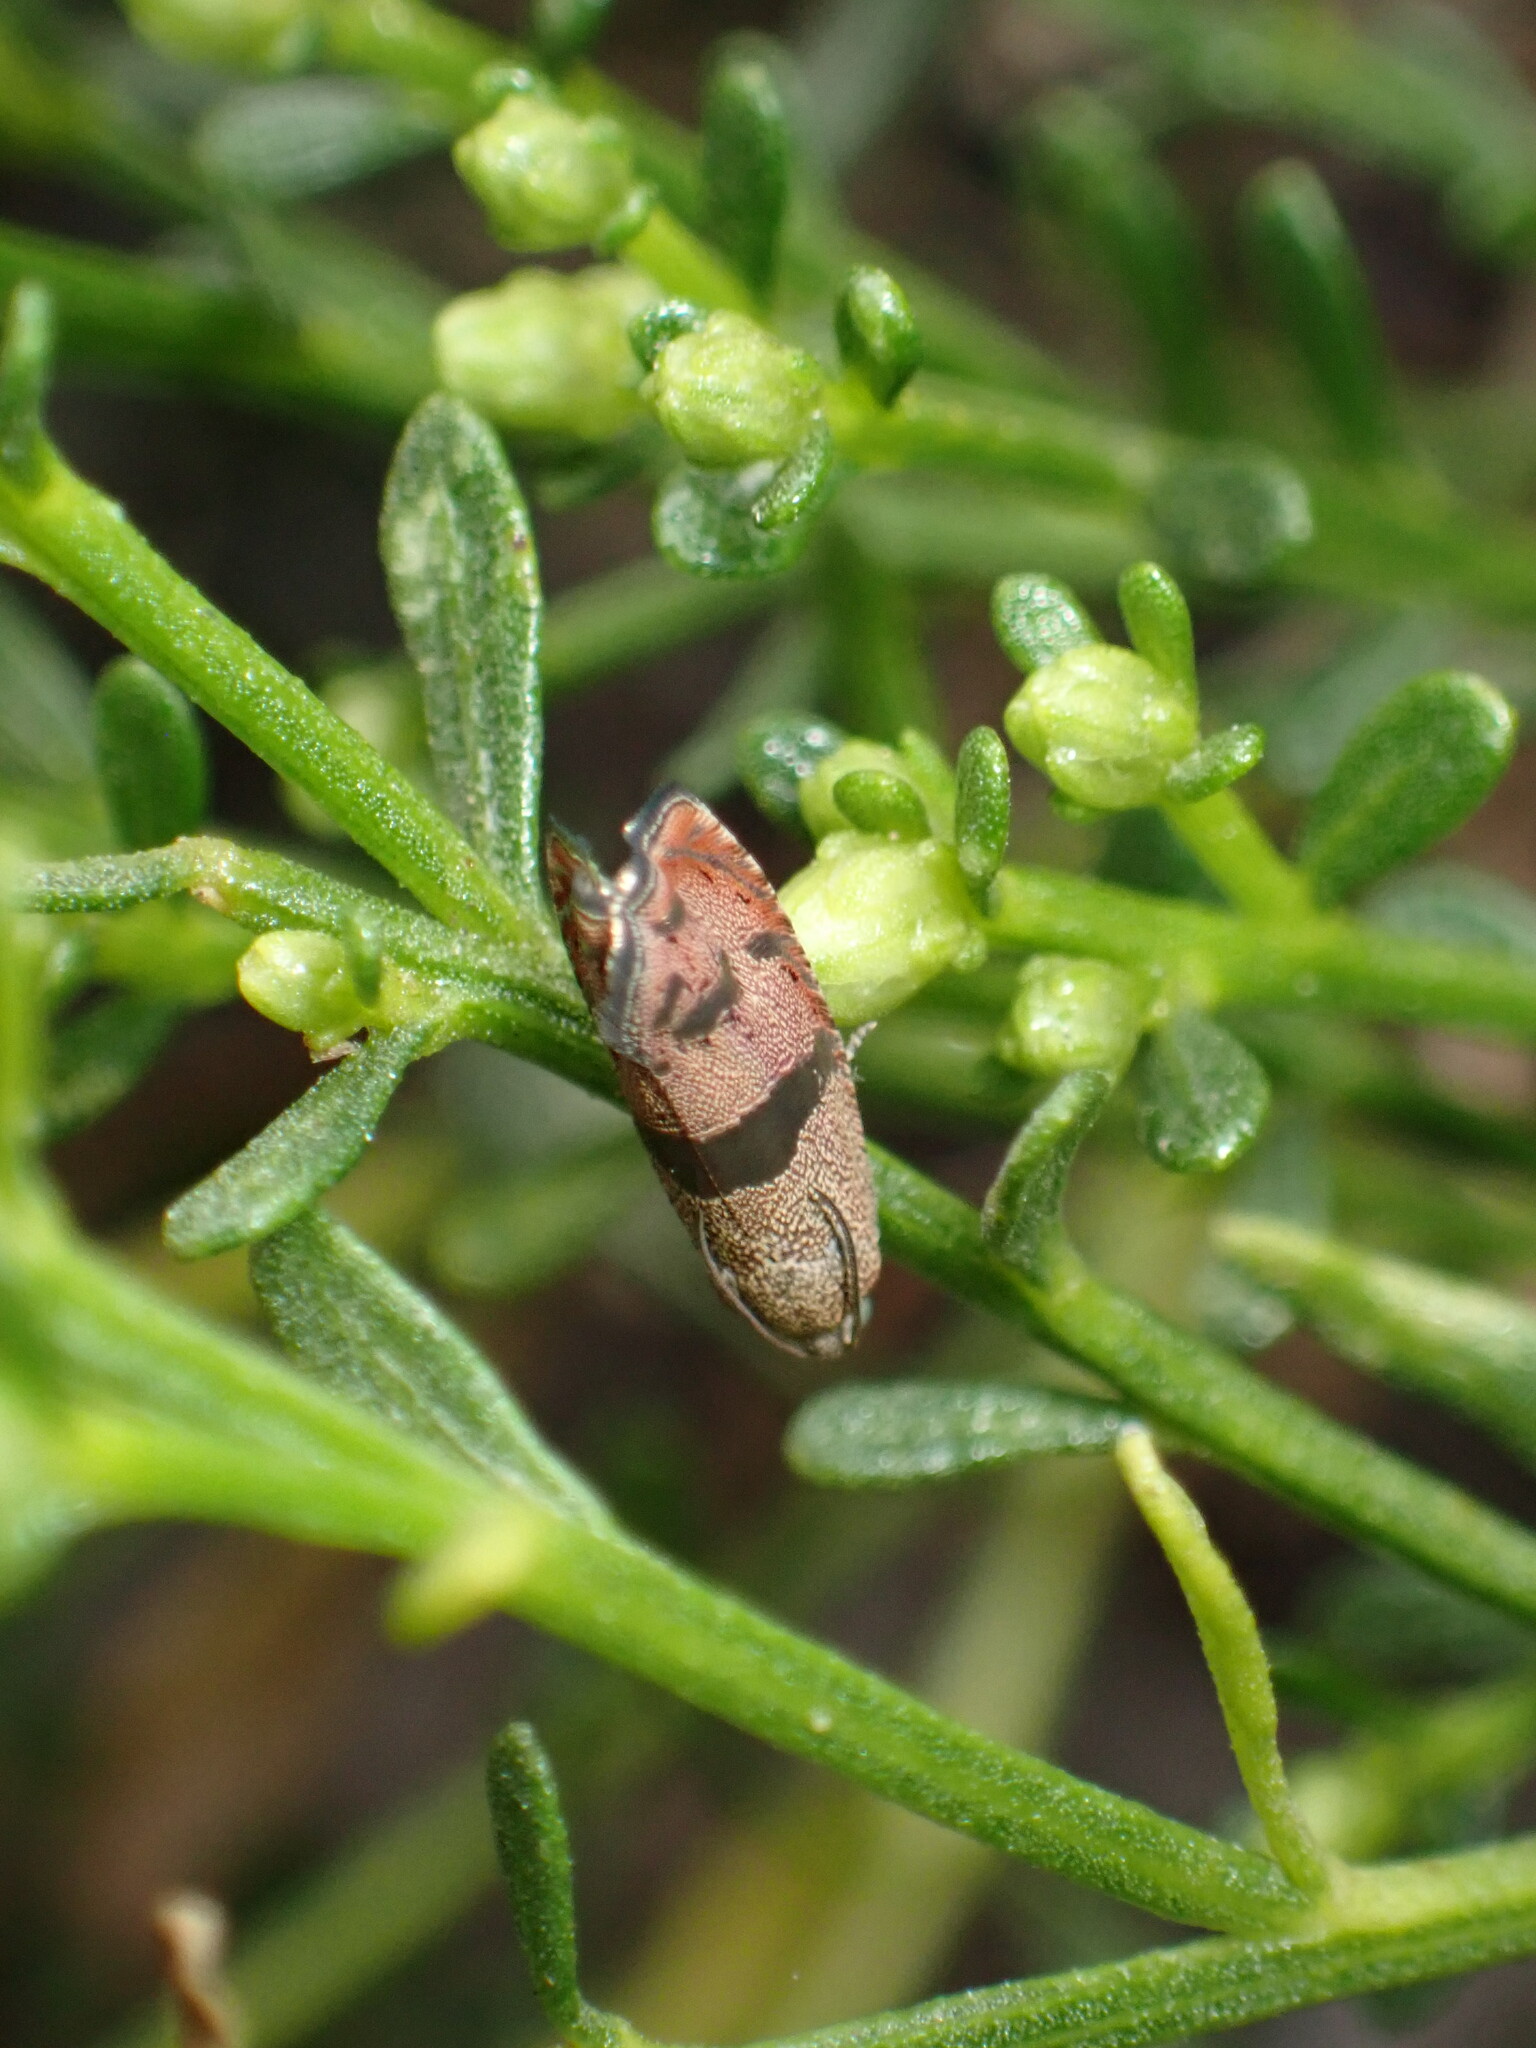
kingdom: Animalia
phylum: Arthropoda
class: Insecta
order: Lepidoptera
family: Tortricidae
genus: Cydia
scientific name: Cydia latiferreana
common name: Filbertworm moth
